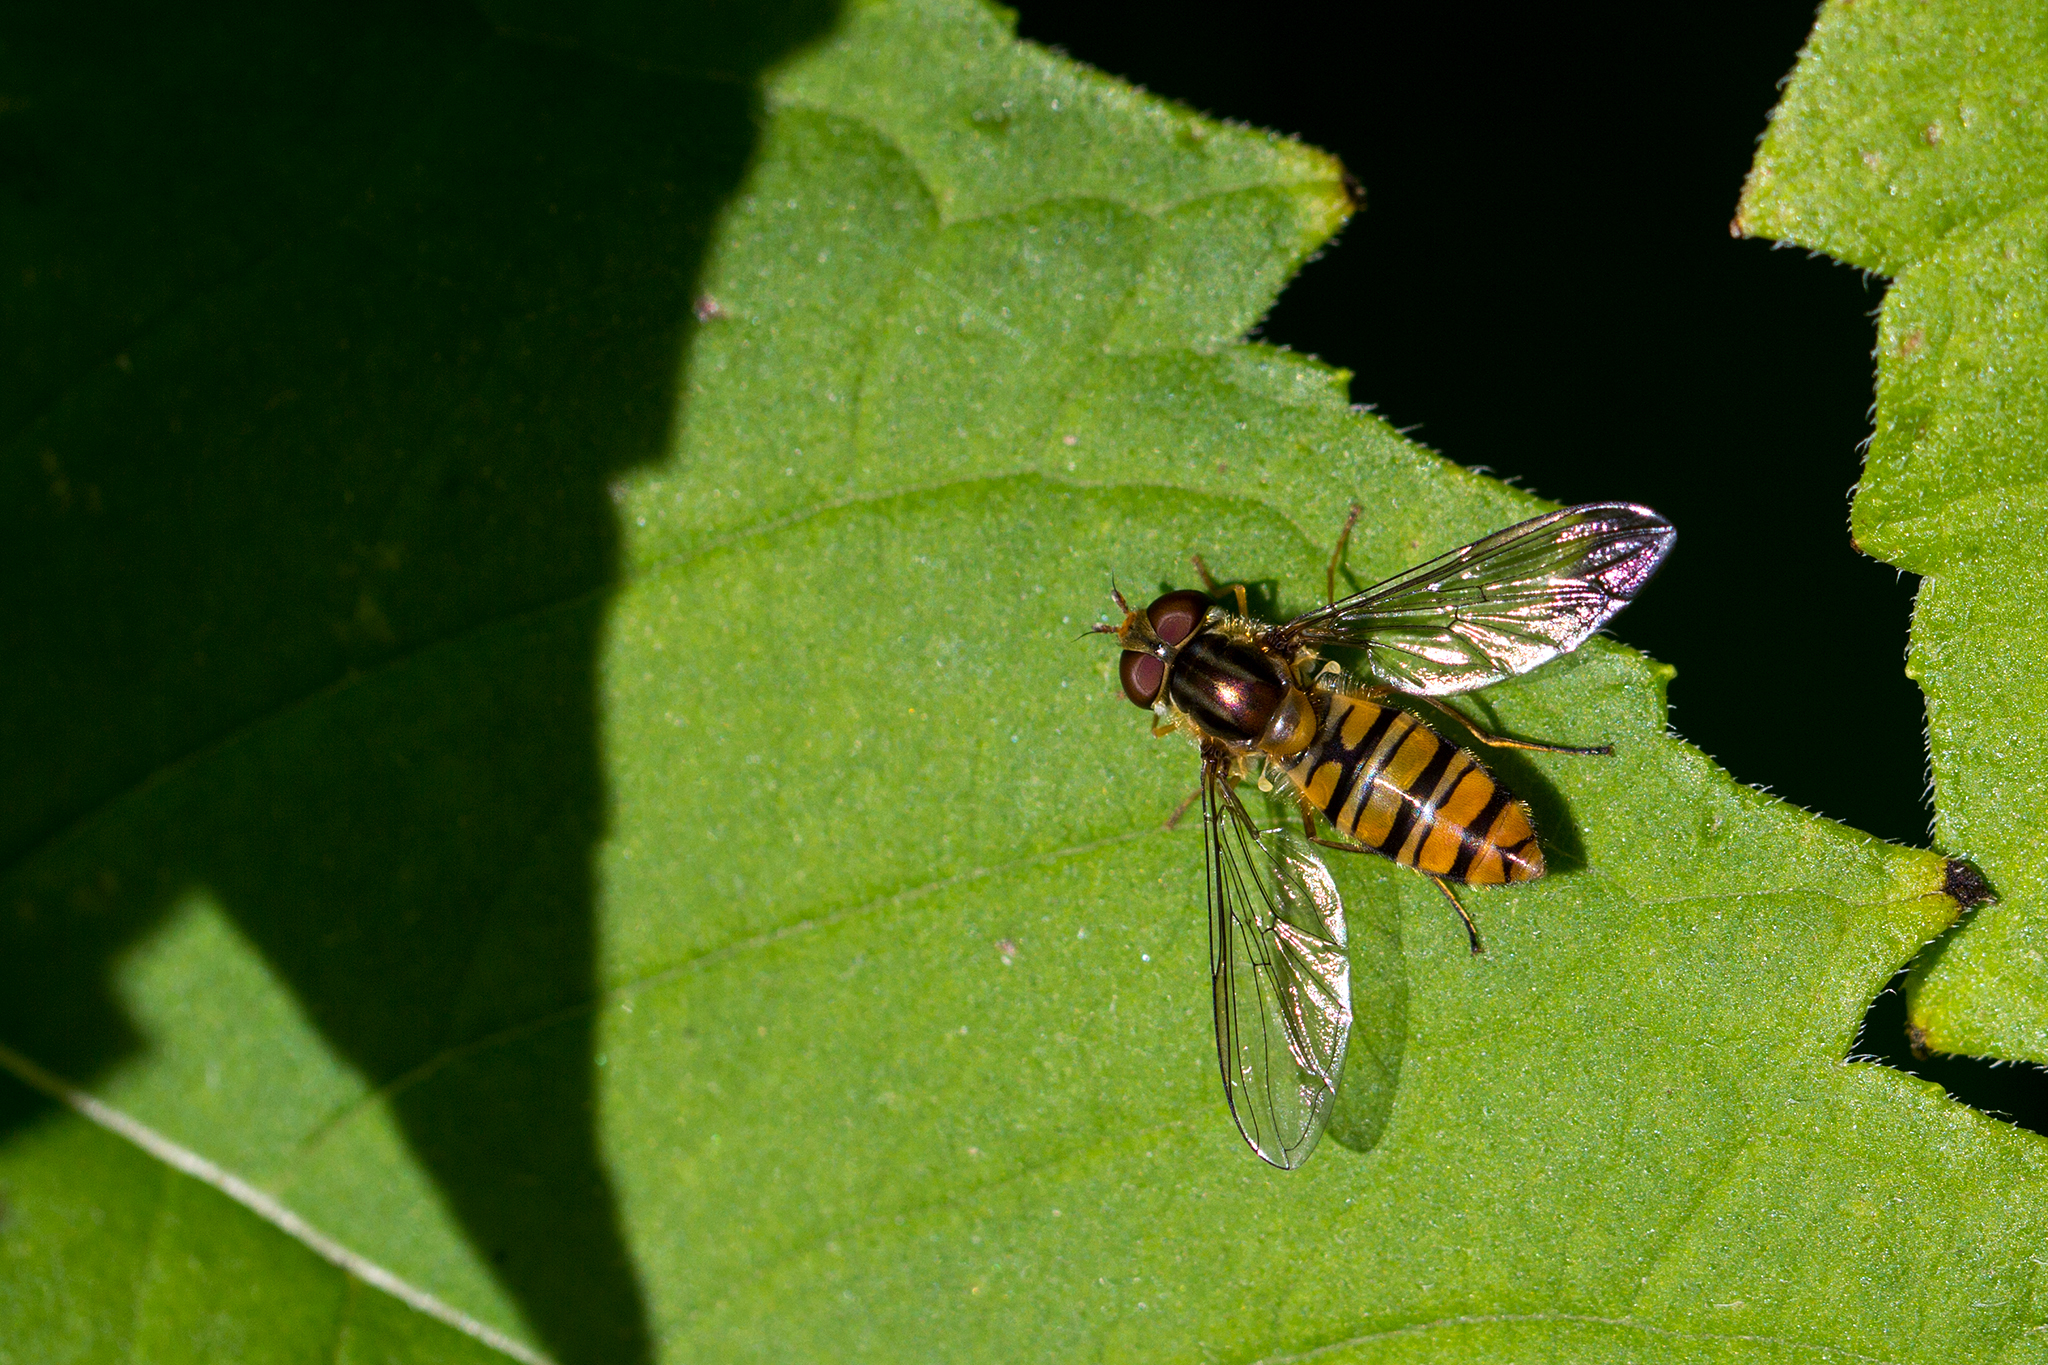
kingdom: Animalia
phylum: Arthropoda
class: Insecta
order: Diptera
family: Syrphidae
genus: Episyrphus
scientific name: Episyrphus balteatus
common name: Marmalade hoverfly
